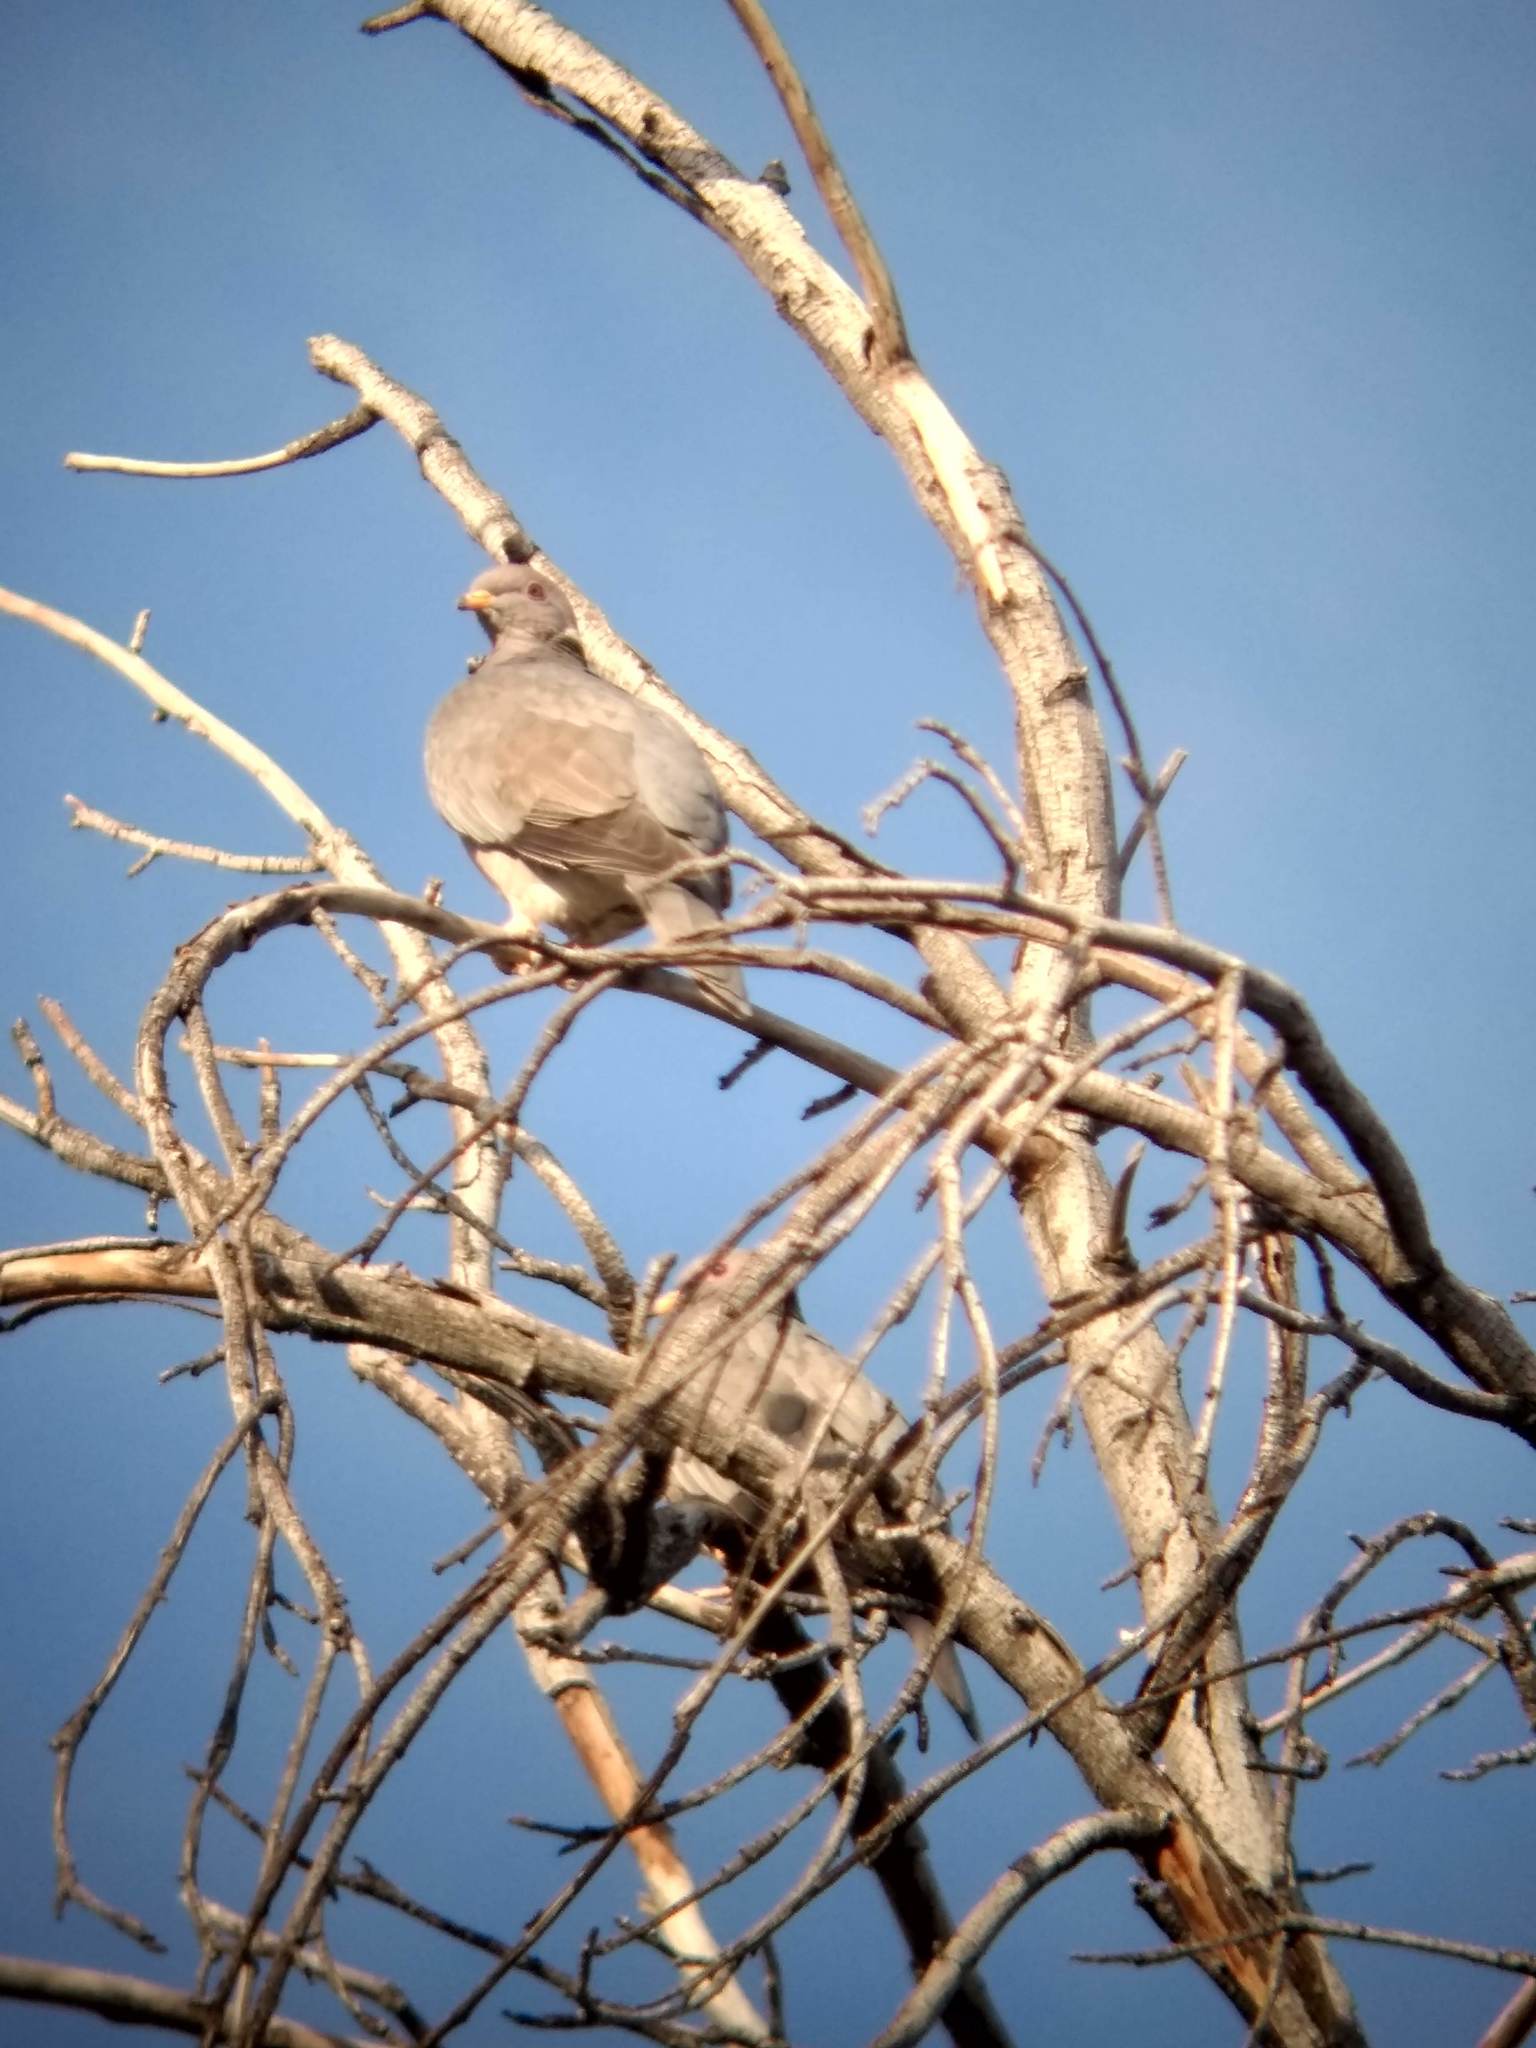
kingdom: Animalia
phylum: Chordata
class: Aves
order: Columbiformes
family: Columbidae
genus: Patagioenas
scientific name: Patagioenas fasciata
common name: Band-tailed pigeon
